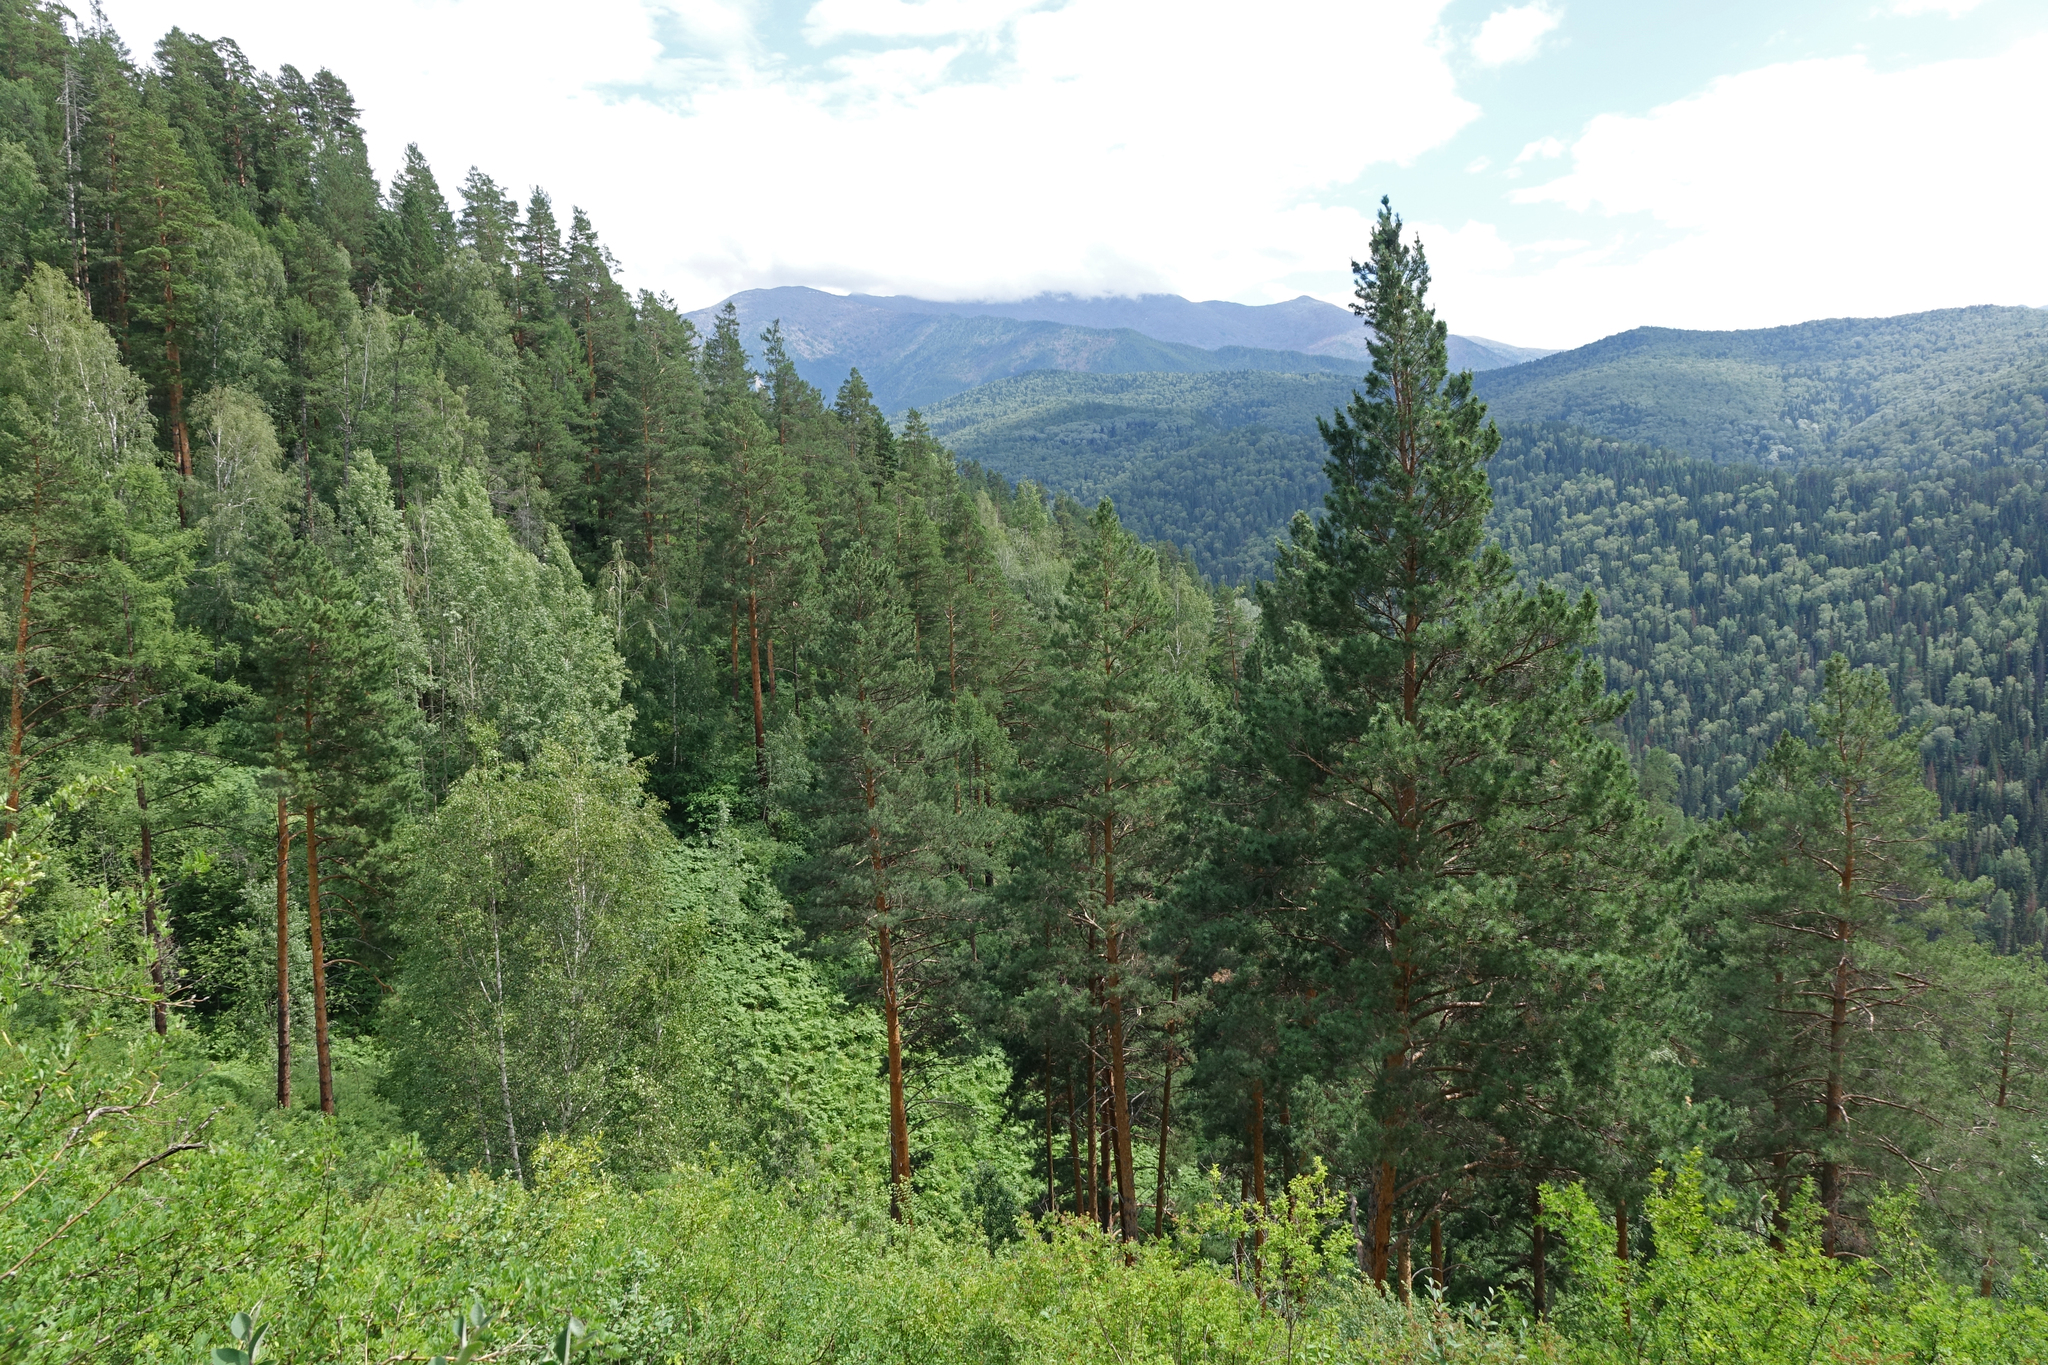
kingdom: Plantae
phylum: Tracheophyta
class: Pinopsida
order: Pinales
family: Pinaceae
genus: Pinus
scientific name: Pinus sylvestris
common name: Scots pine
